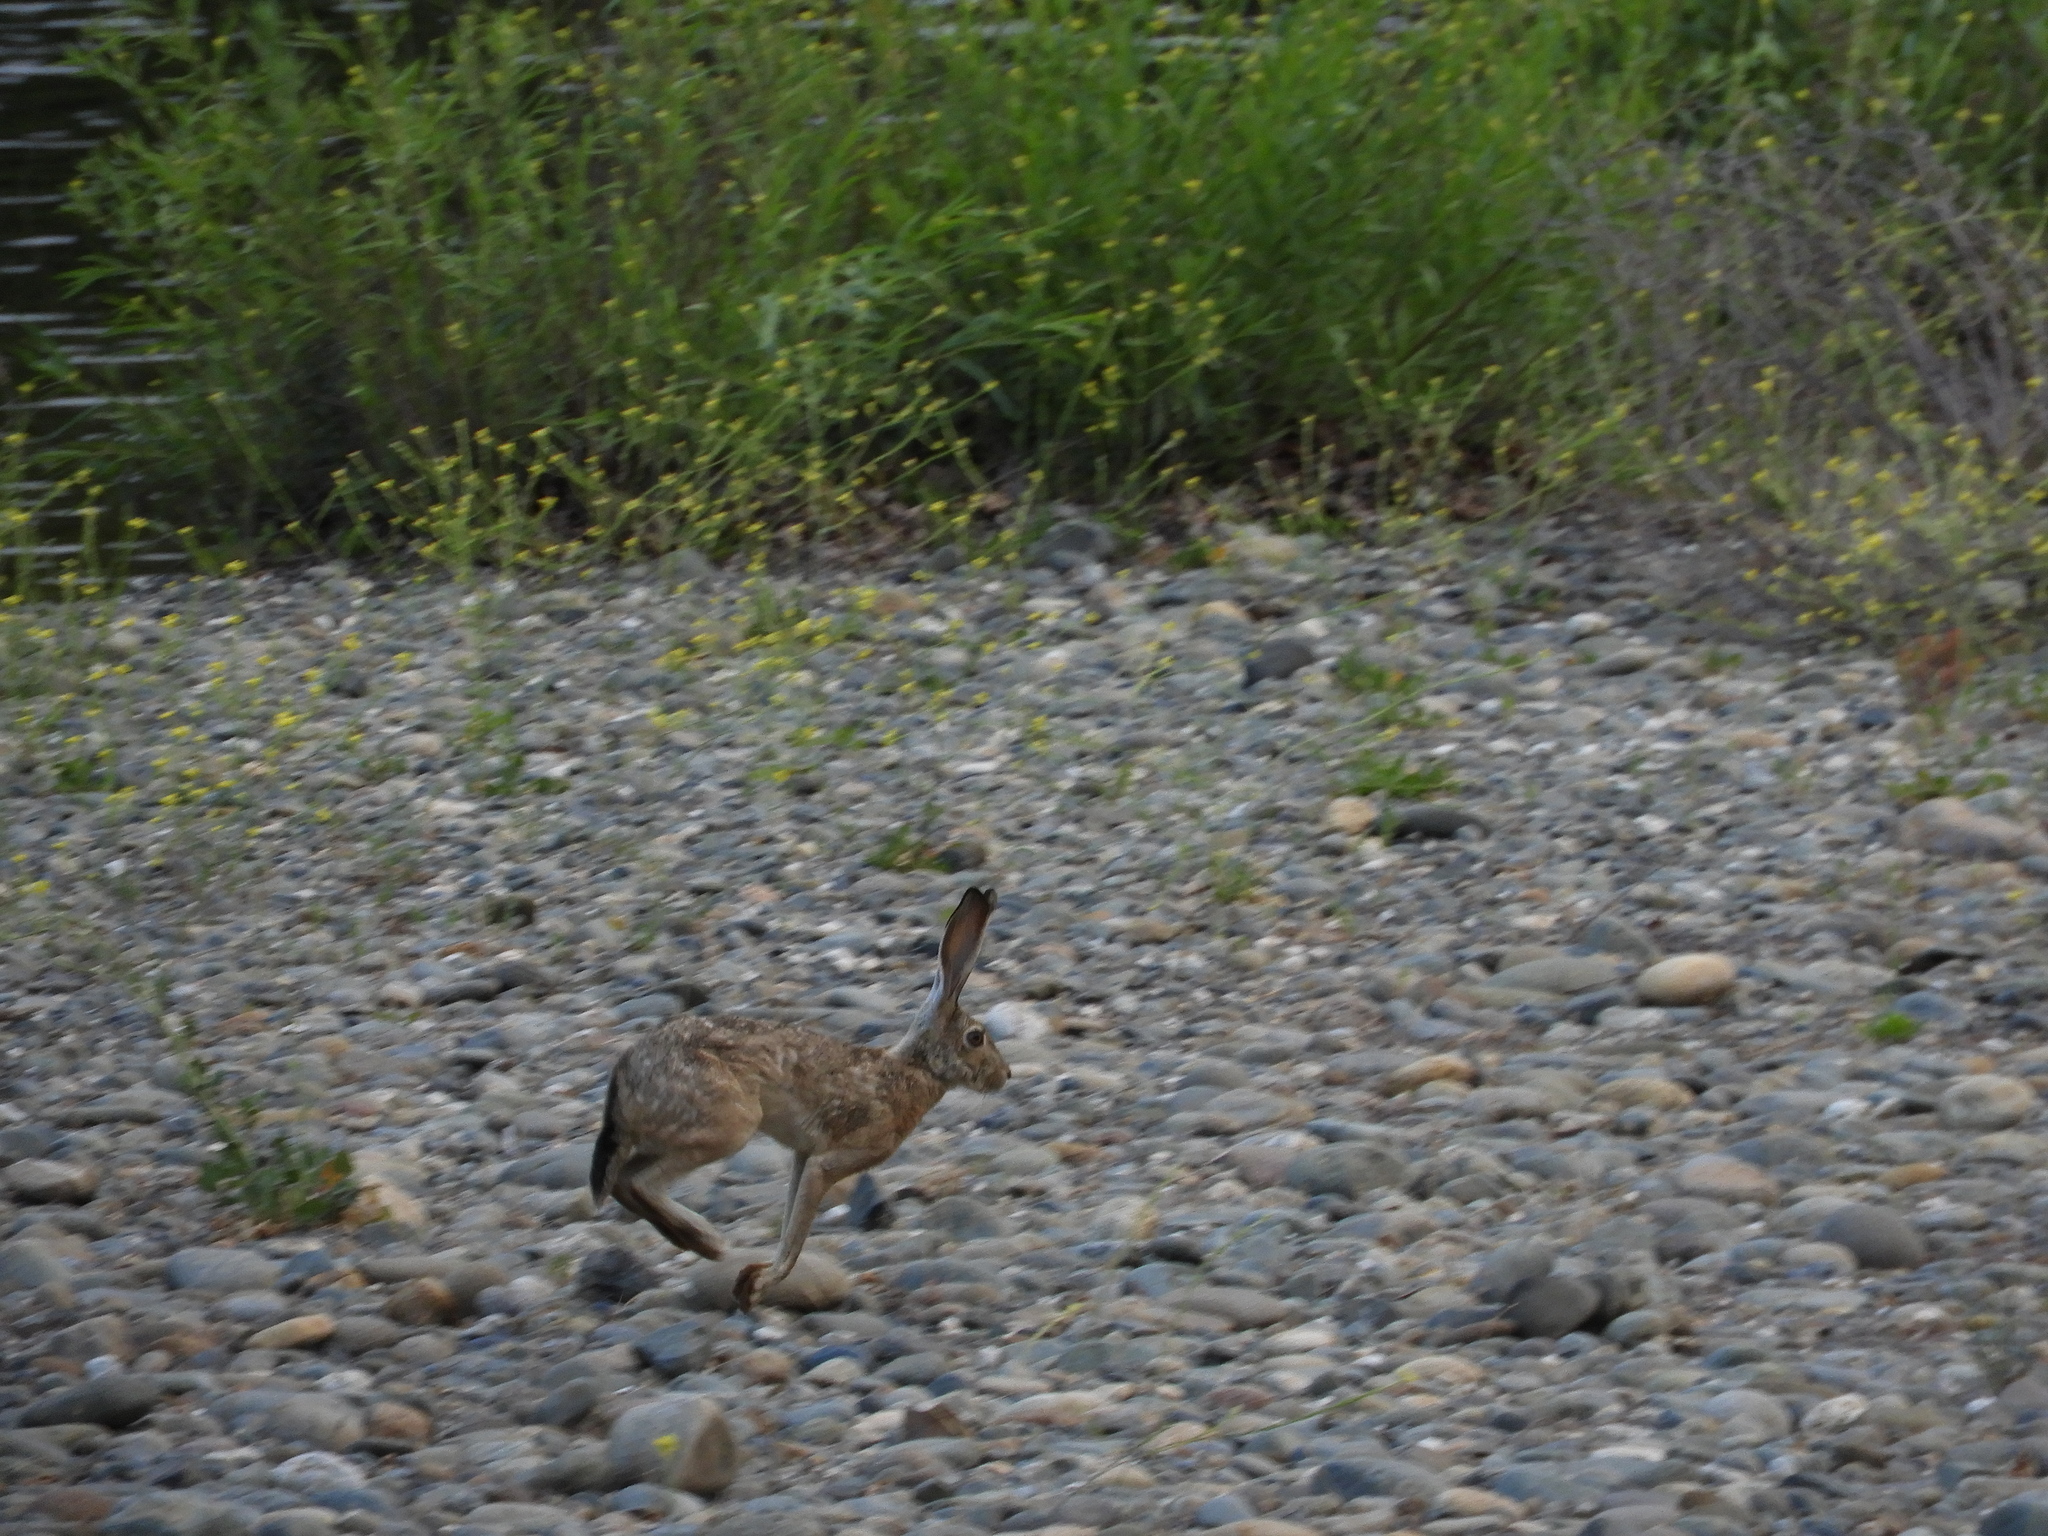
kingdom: Animalia
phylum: Chordata
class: Mammalia
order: Lagomorpha
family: Leporidae
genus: Lepus
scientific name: Lepus californicus
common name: Black-tailed jackrabbit
